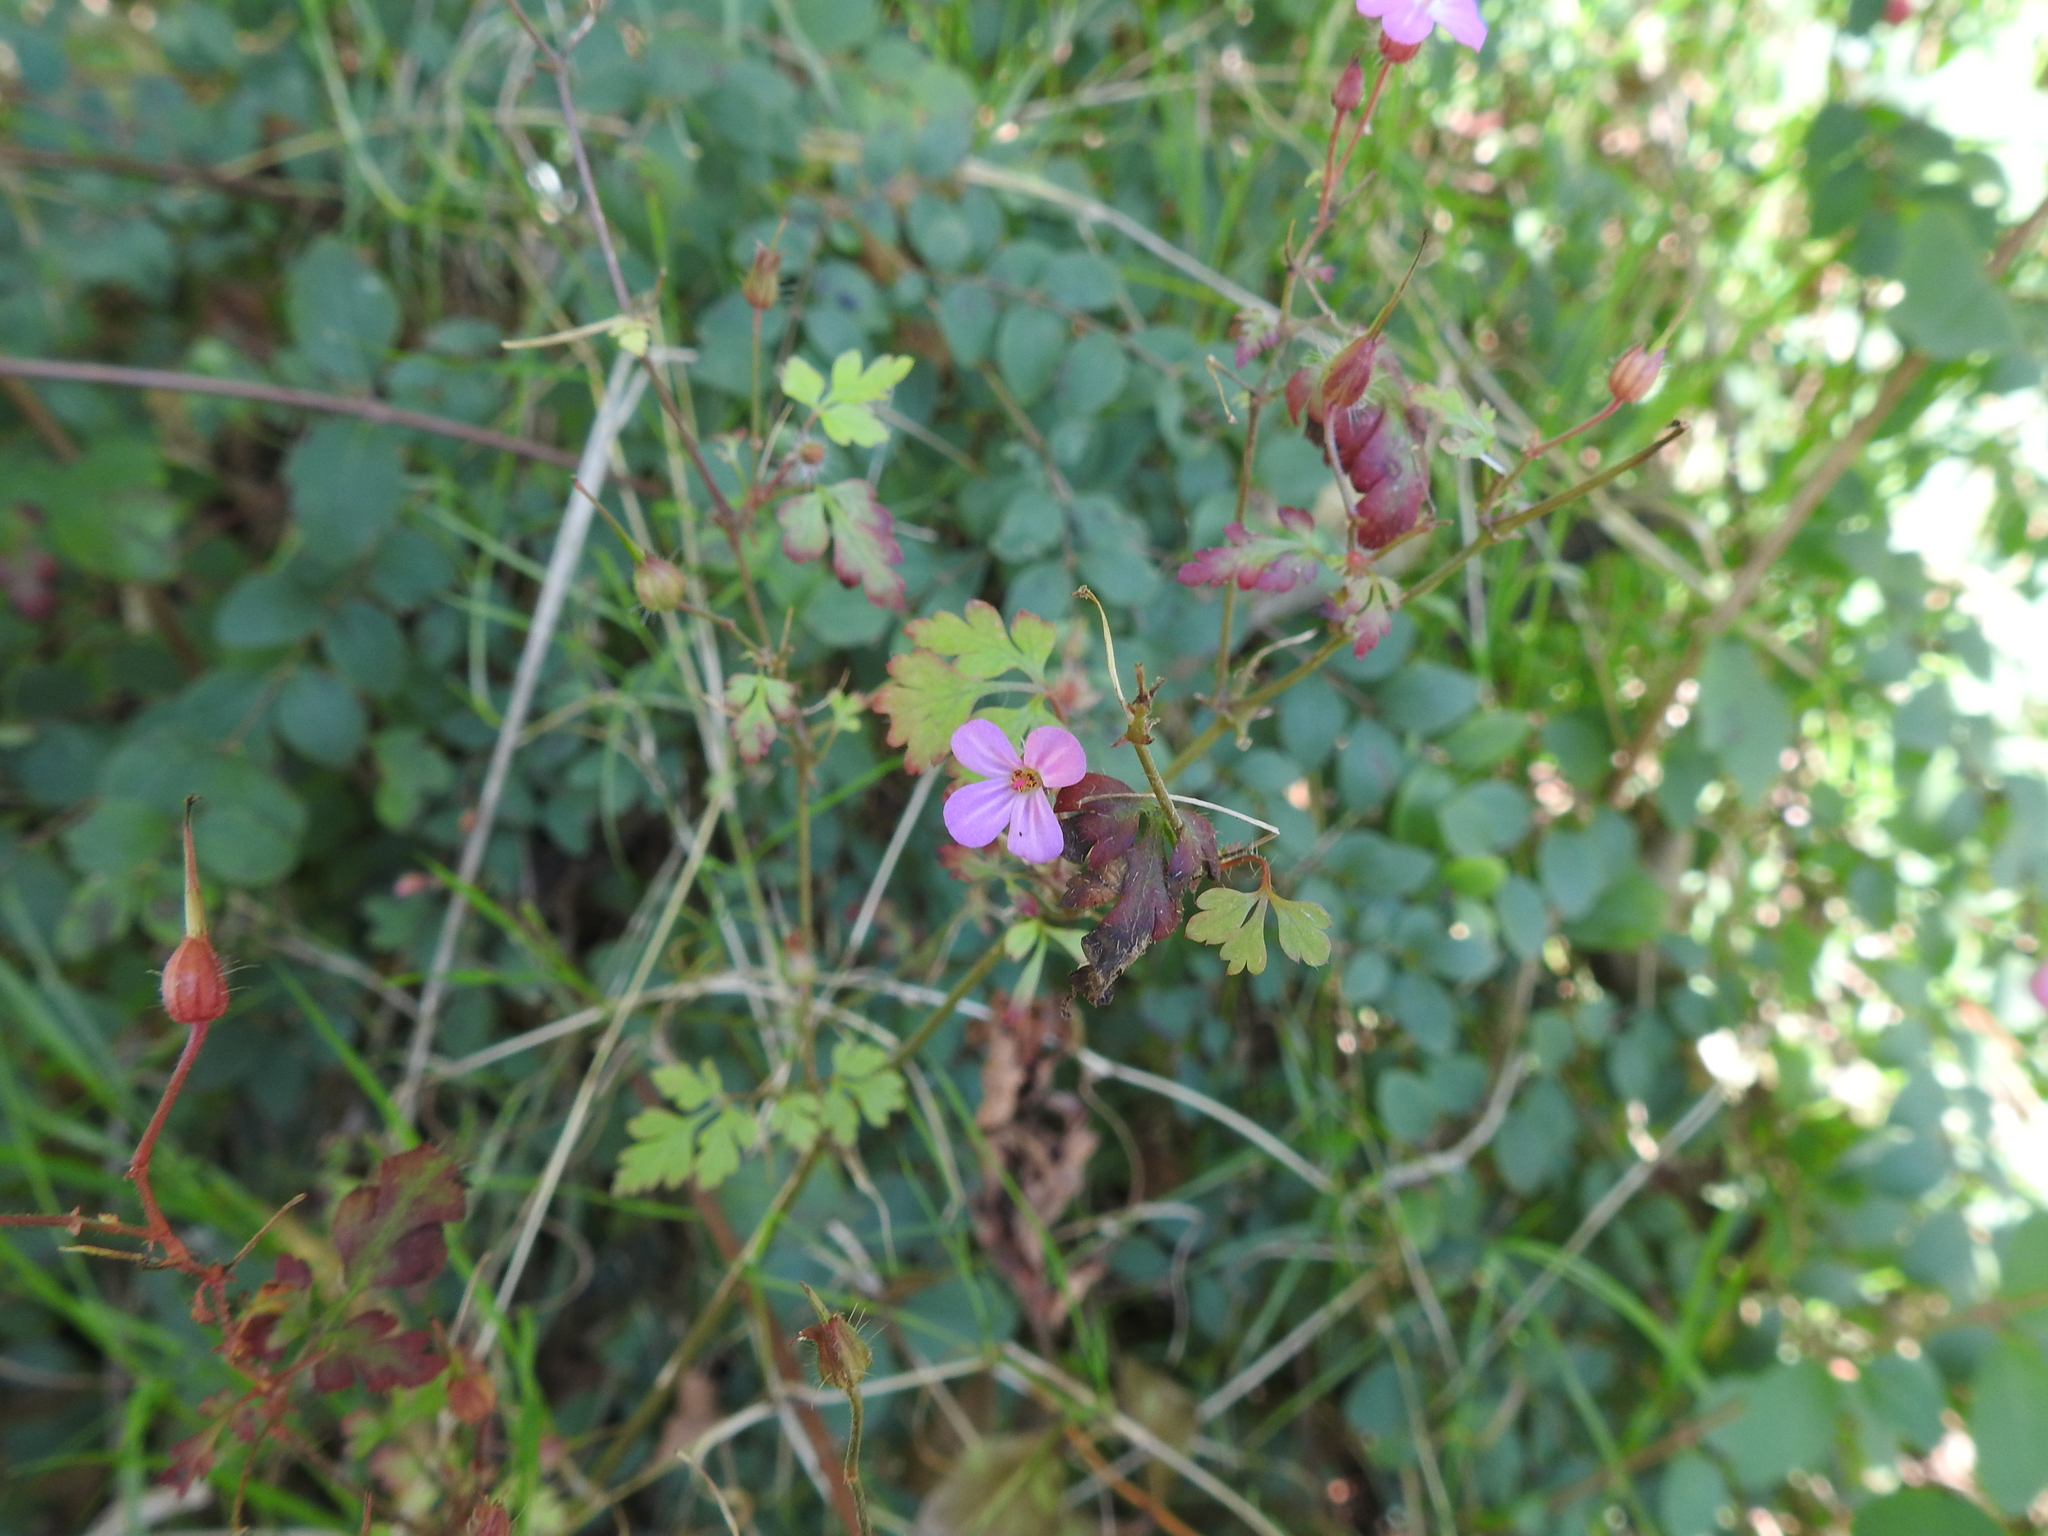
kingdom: Plantae
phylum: Tracheophyta
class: Magnoliopsida
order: Geraniales
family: Geraniaceae
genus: Geranium
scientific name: Geranium robertianum
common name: Herb-robert
